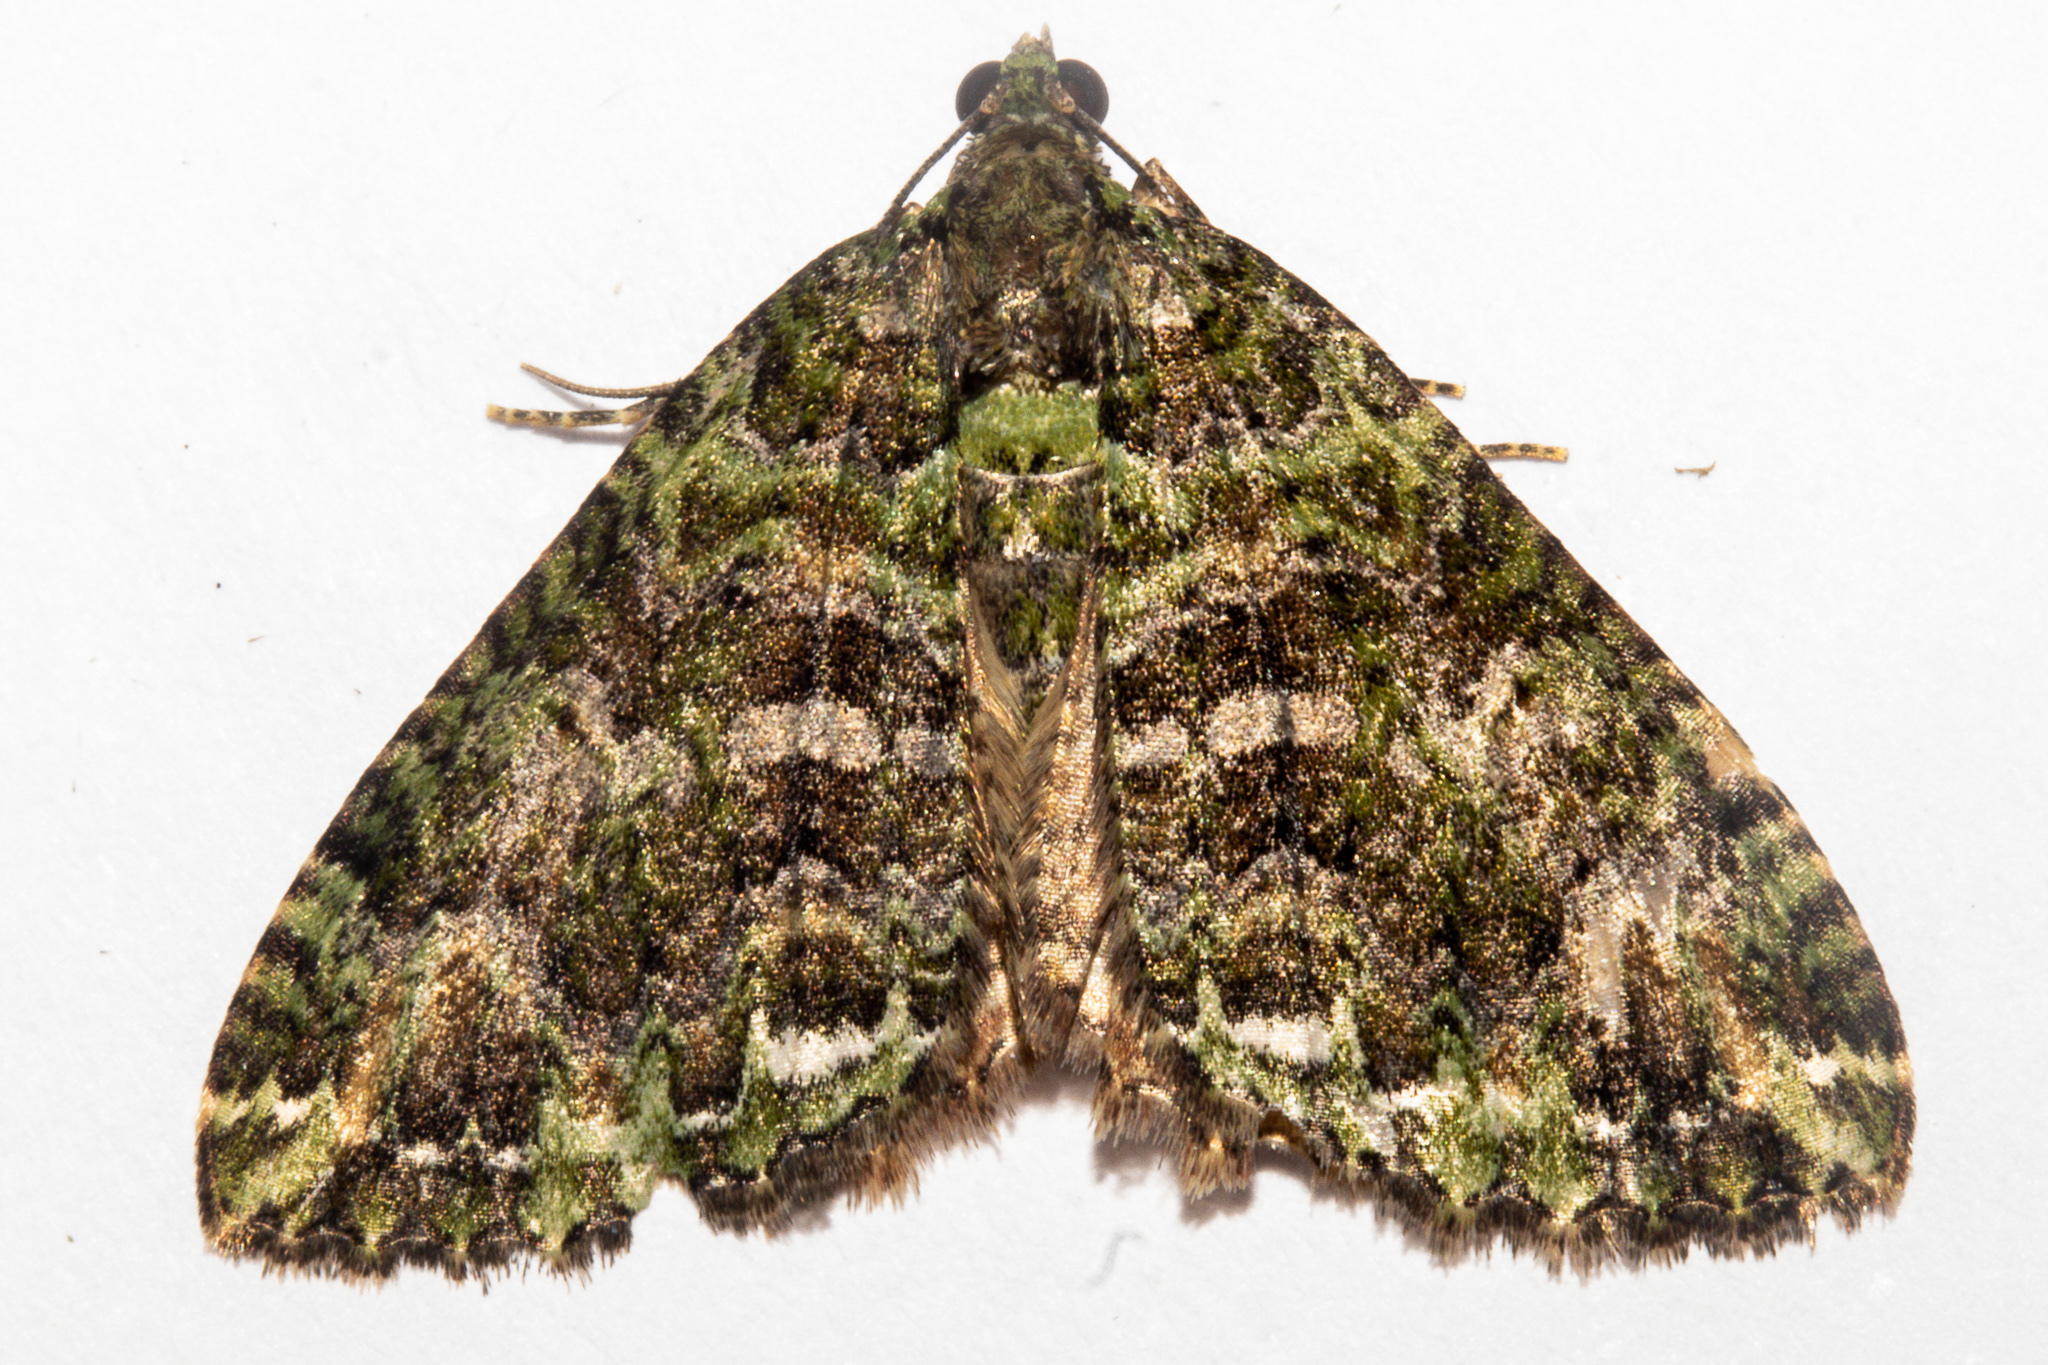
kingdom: Animalia
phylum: Arthropoda
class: Insecta
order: Lepidoptera
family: Geometridae
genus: Austrocidaria
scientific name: Austrocidaria similata
